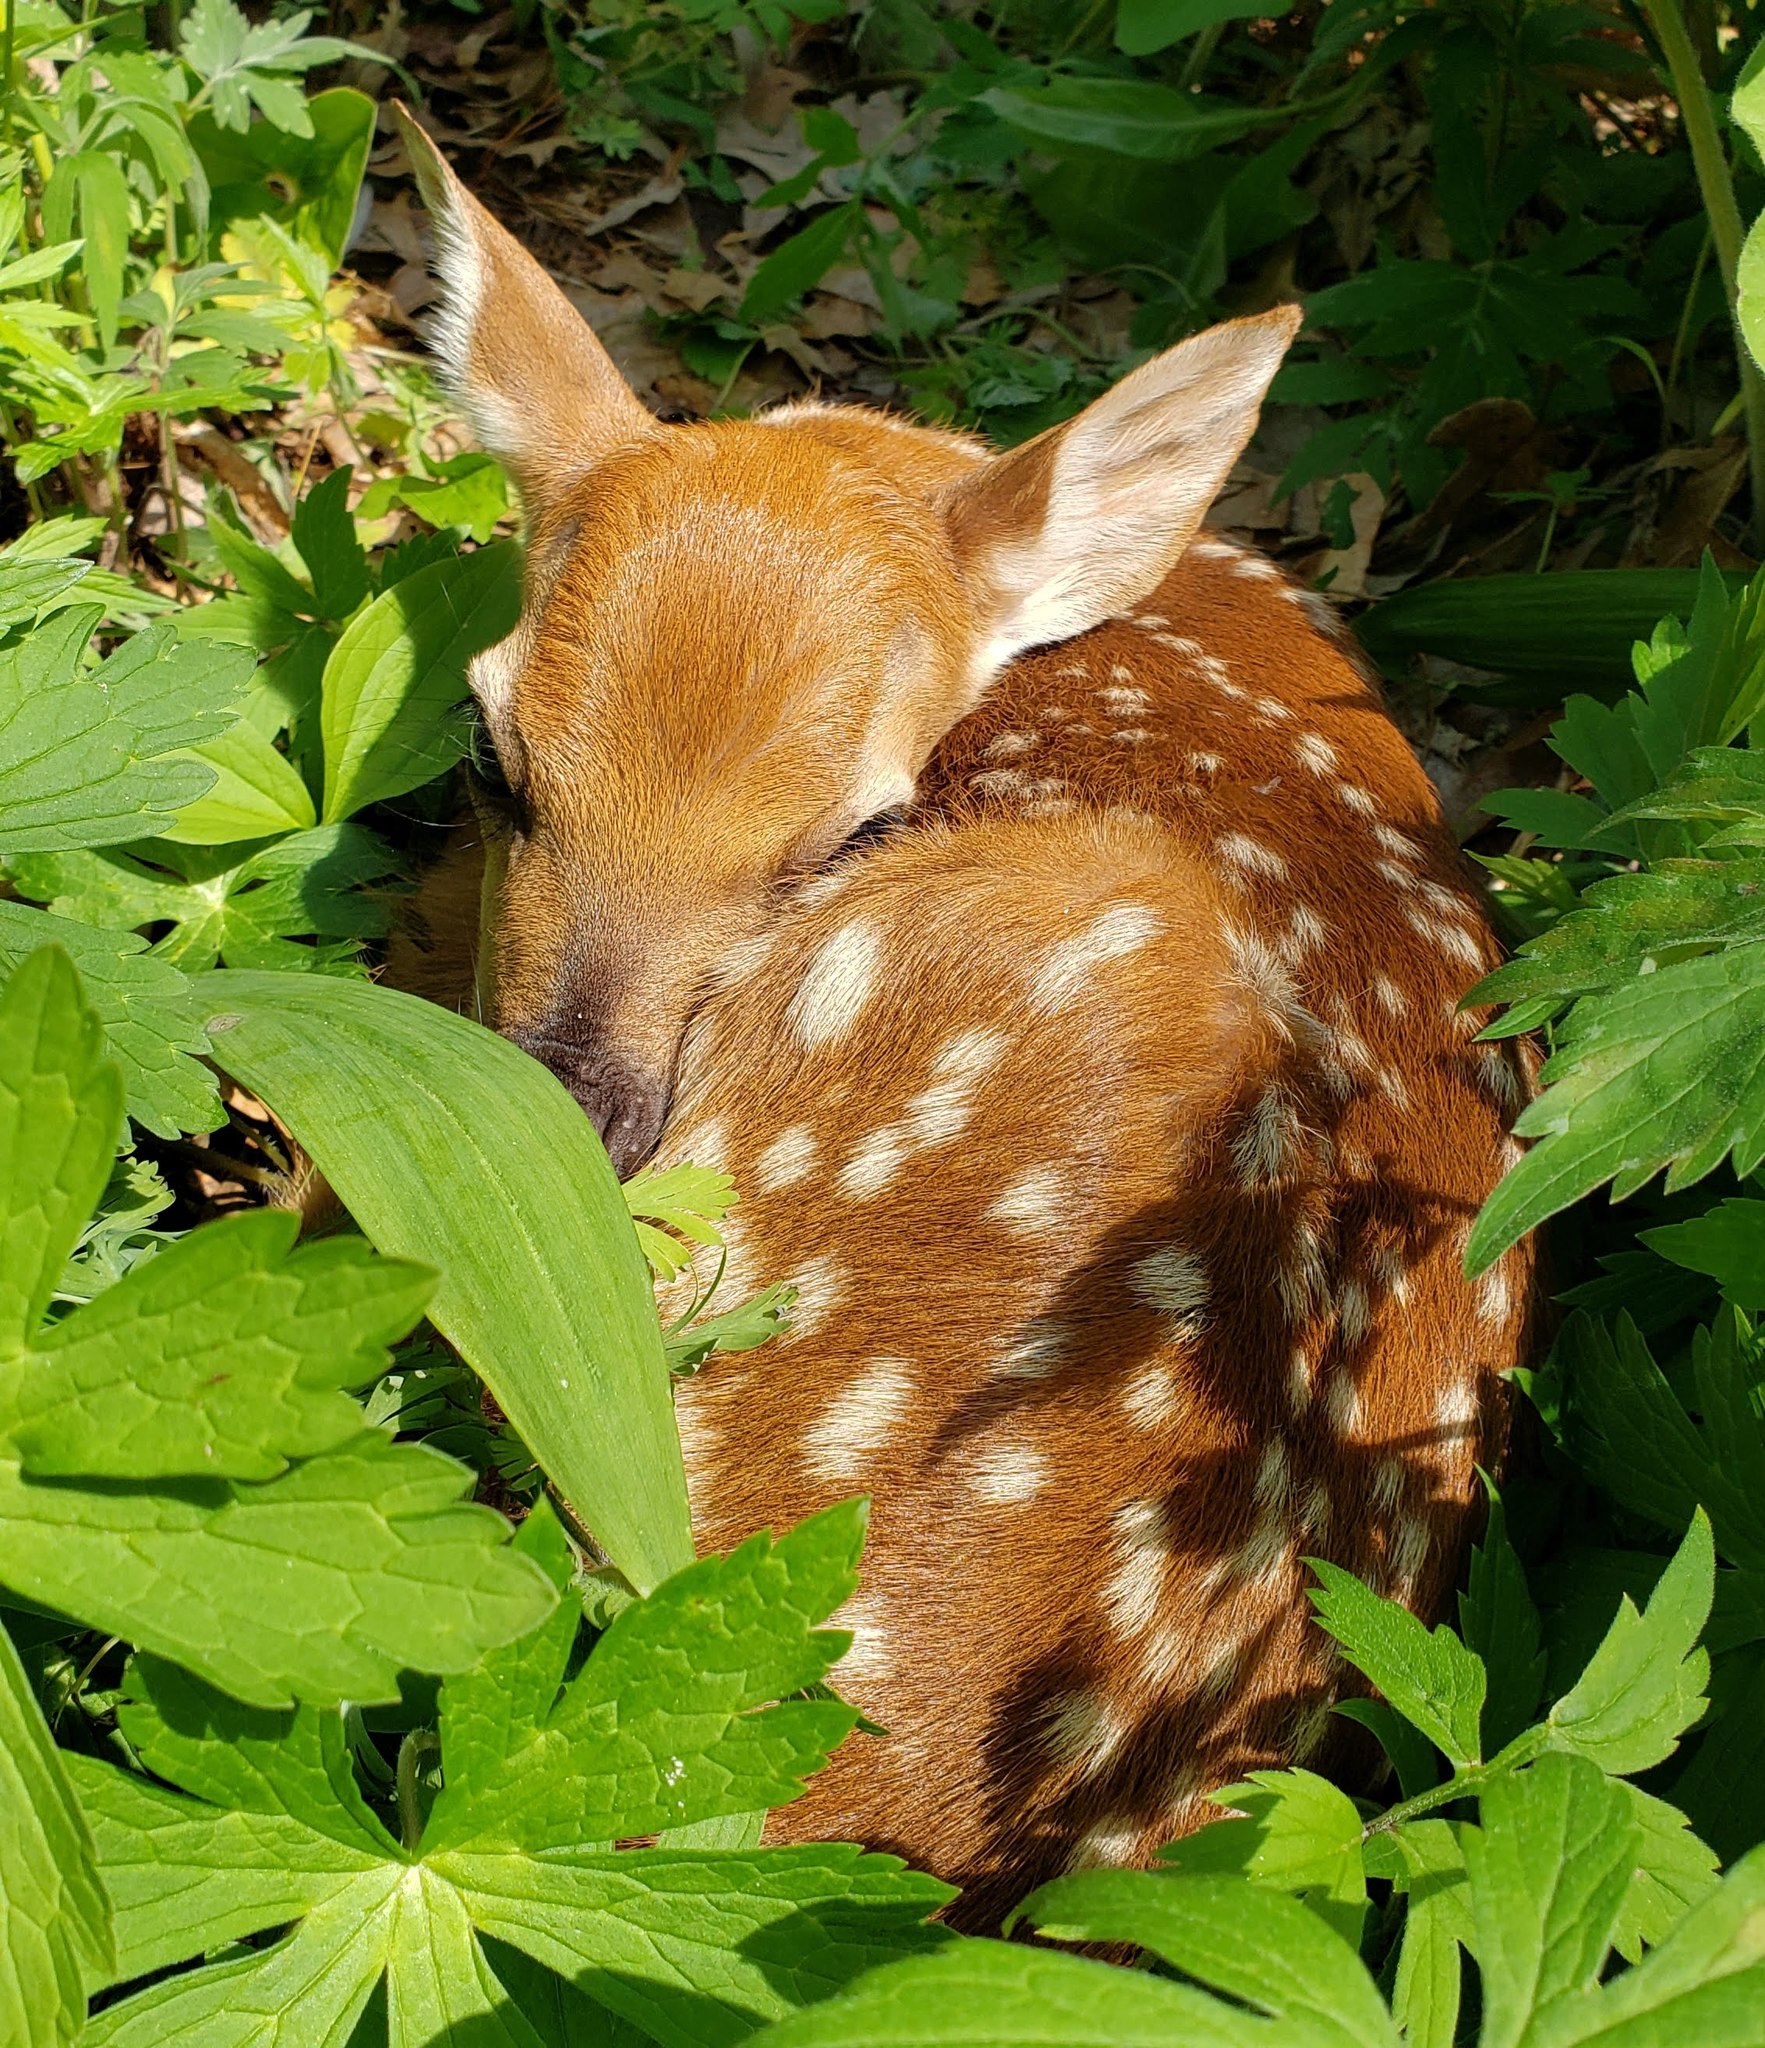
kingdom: Animalia
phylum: Chordata
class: Mammalia
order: Artiodactyla
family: Cervidae
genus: Odocoileus
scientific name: Odocoileus virginianus
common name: White-tailed deer
